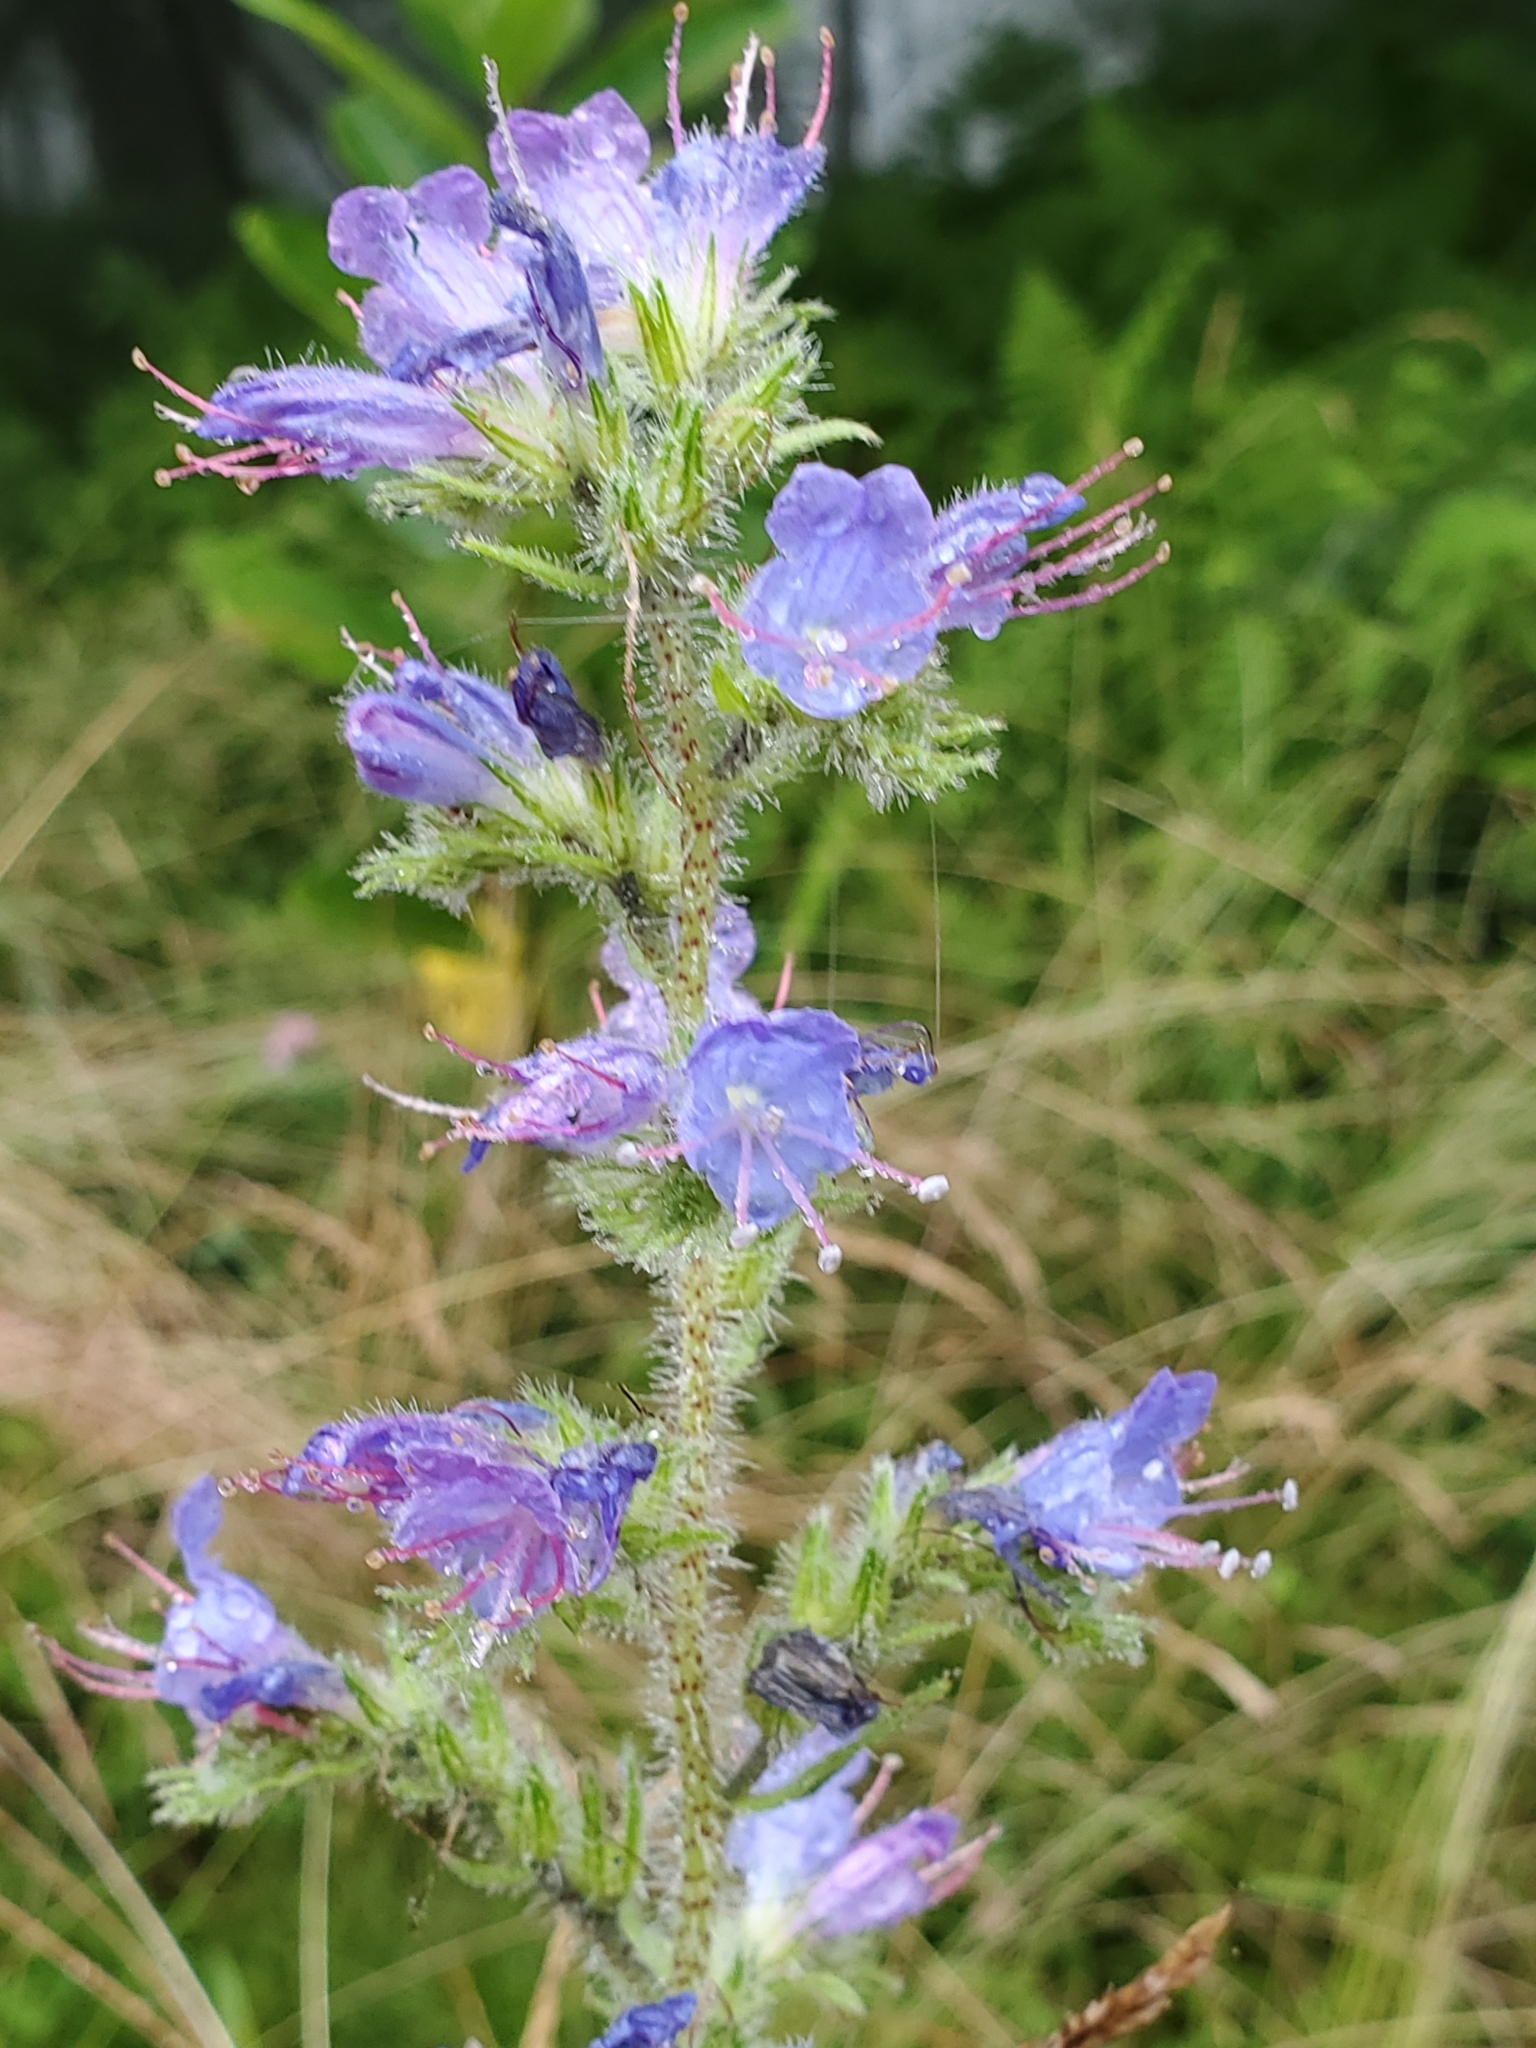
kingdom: Plantae
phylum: Tracheophyta
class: Magnoliopsida
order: Boraginales
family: Boraginaceae
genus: Echium
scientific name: Echium vulgare
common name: Common viper's bugloss
